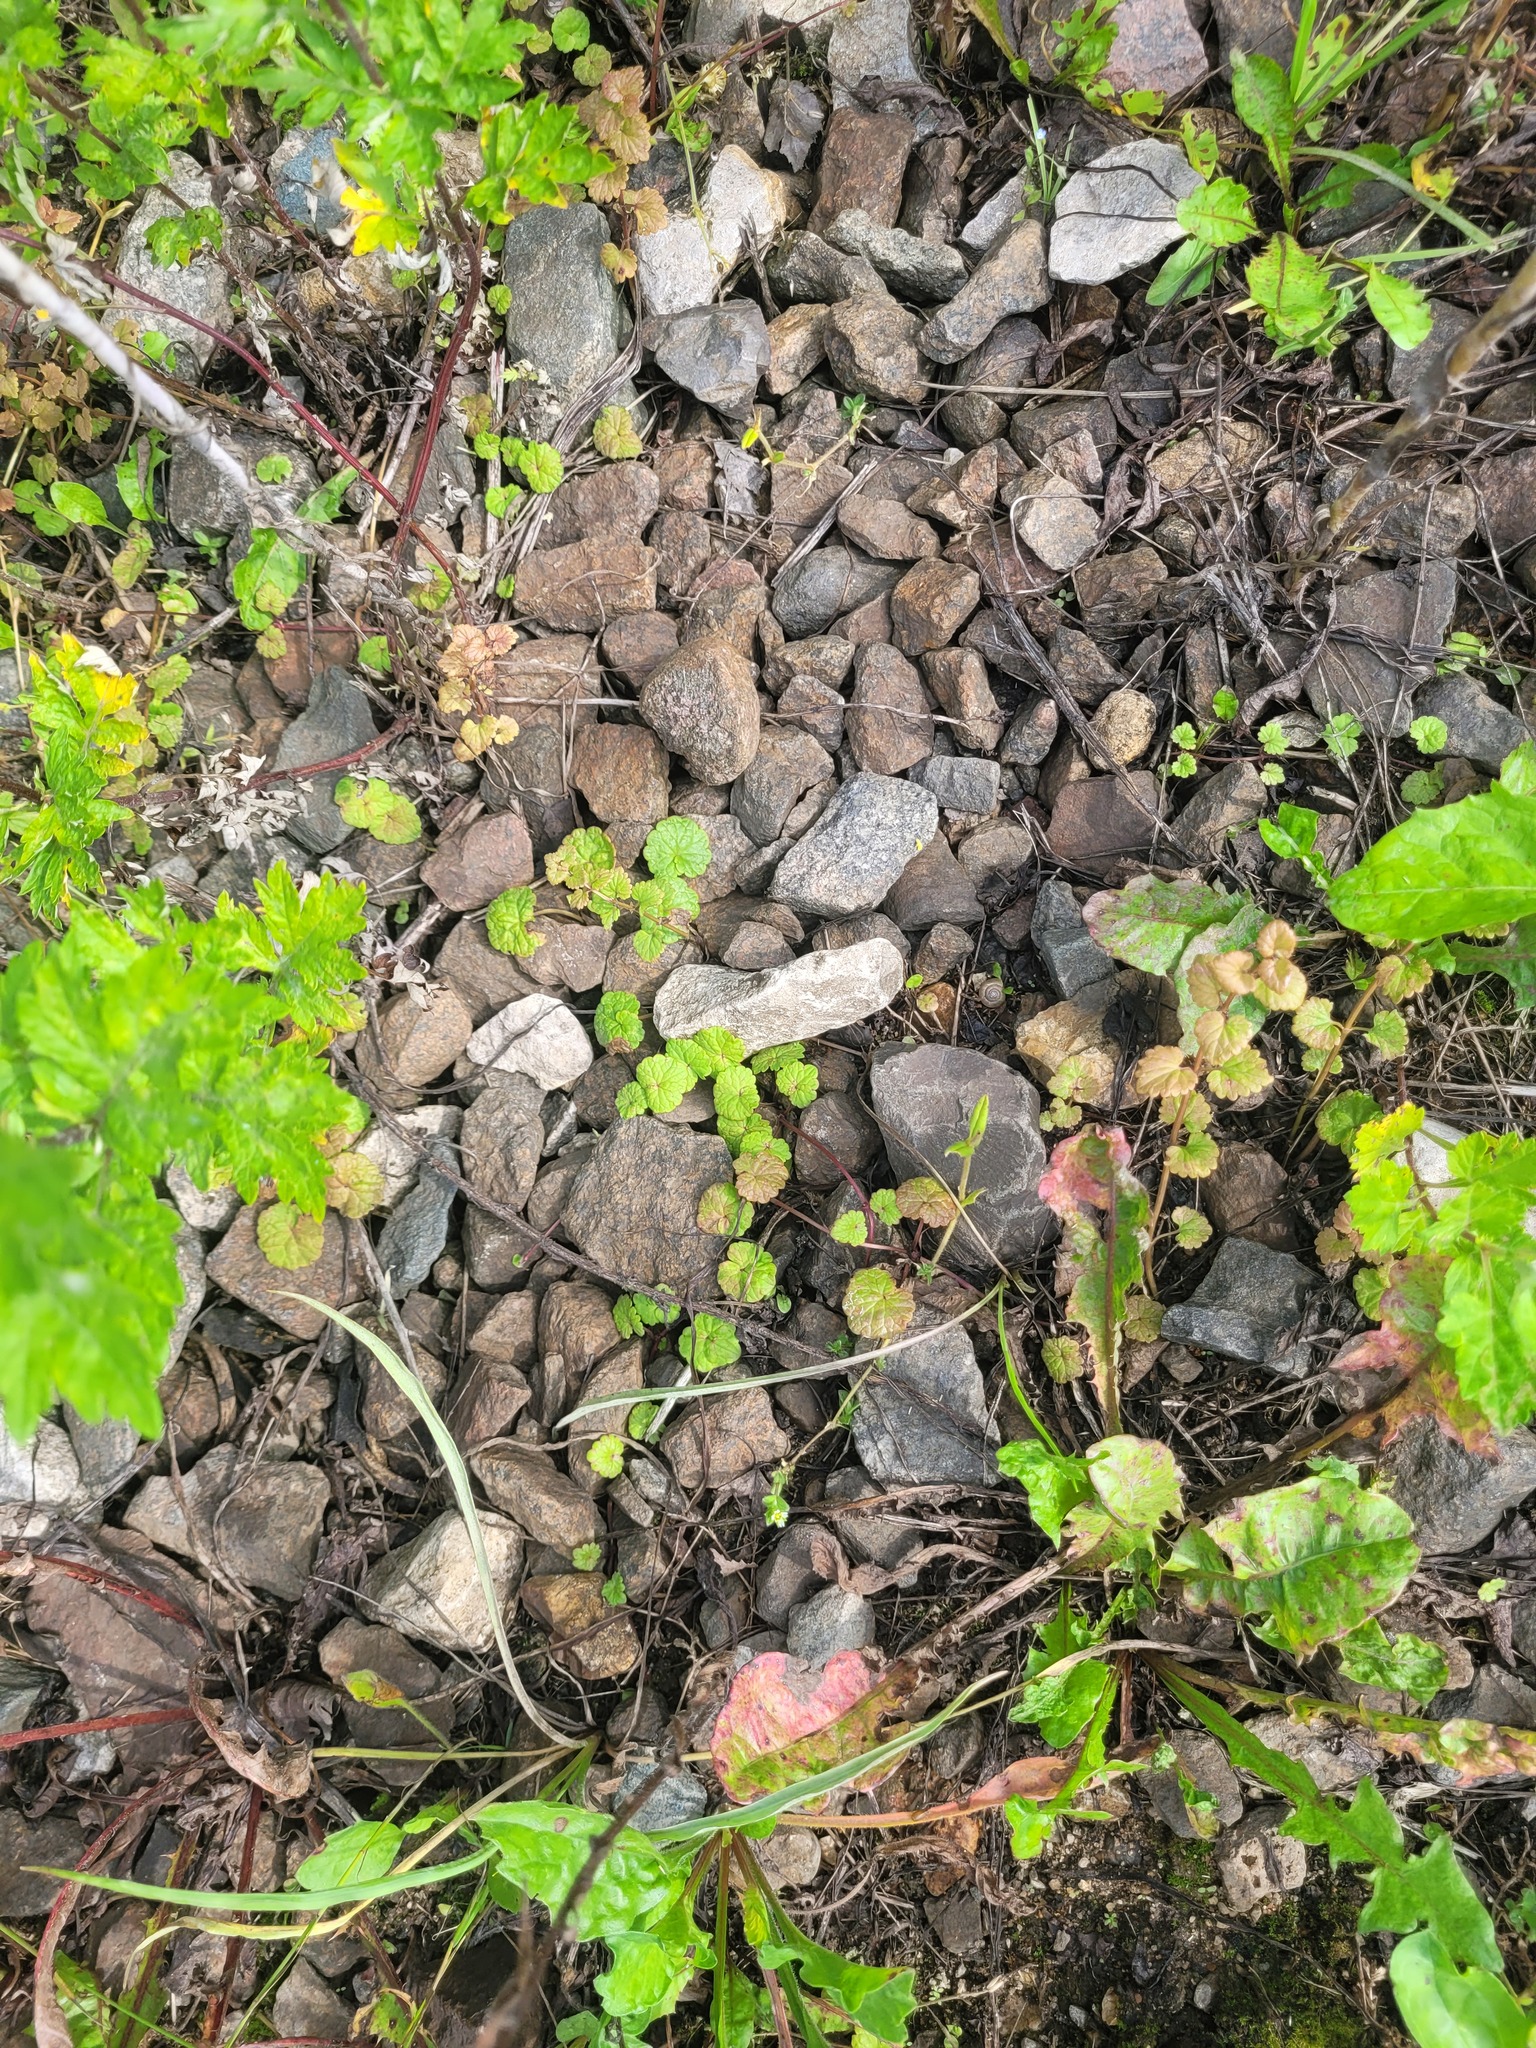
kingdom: Plantae
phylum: Tracheophyta
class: Magnoliopsida
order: Lamiales
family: Lamiaceae
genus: Glechoma
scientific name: Glechoma hederacea
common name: Ground ivy
